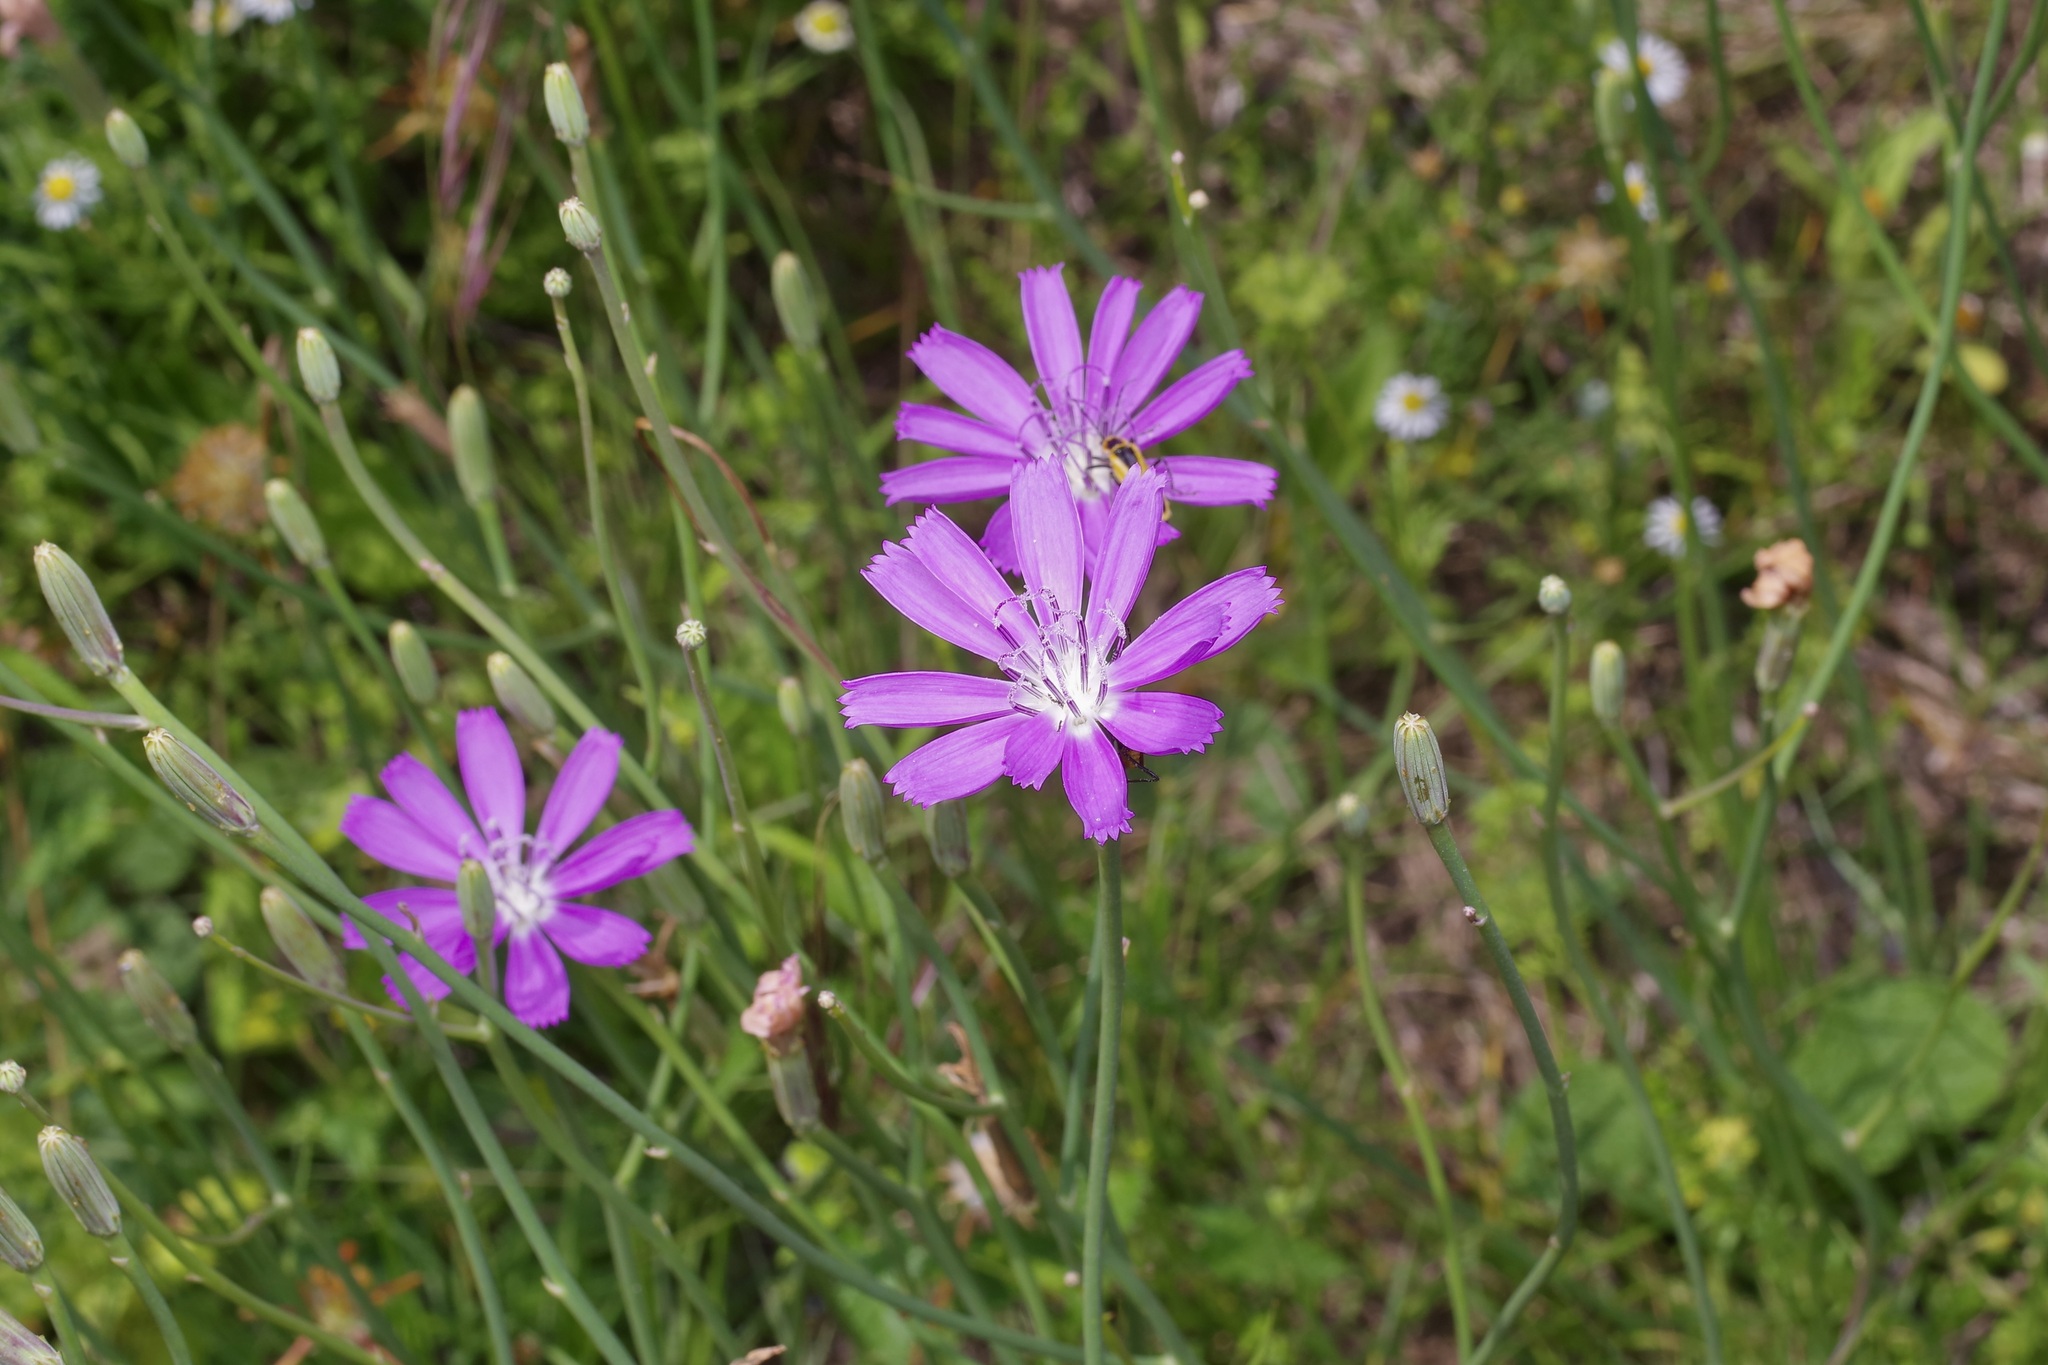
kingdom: Plantae
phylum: Tracheophyta
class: Magnoliopsida
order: Asterales
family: Asteraceae
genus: Lygodesmia
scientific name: Lygodesmia texana
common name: Texas skeleton-plant
